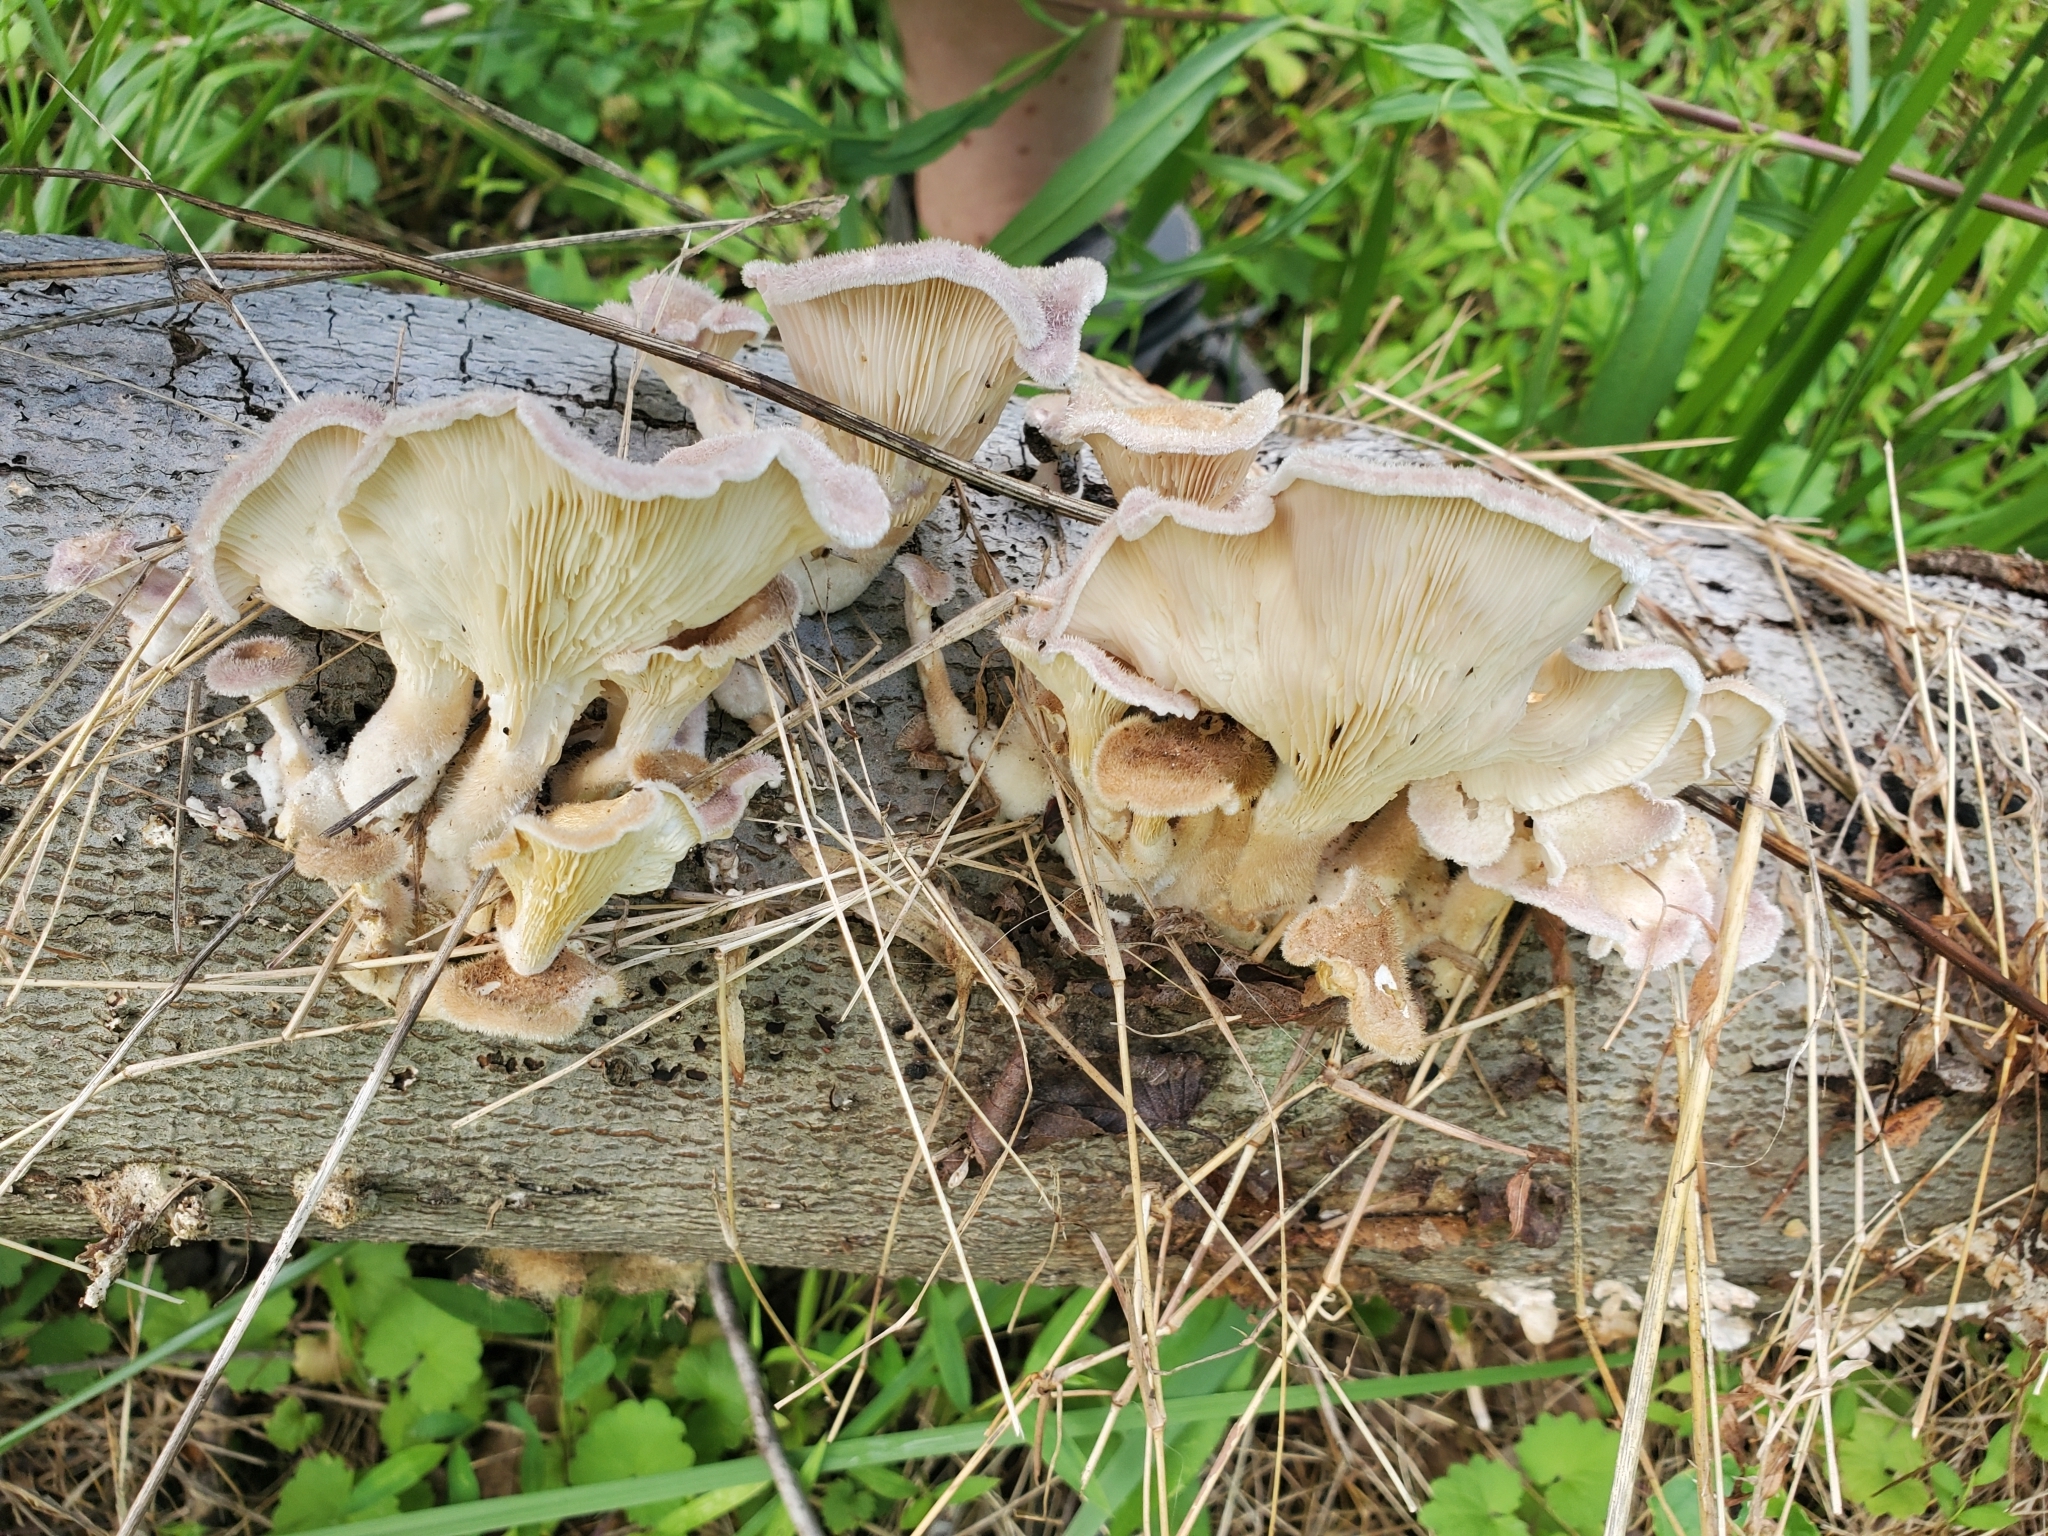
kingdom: Fungi
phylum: Basidiomycota
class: Agaricomycetes
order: Polyporales
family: Panaceae
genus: Panus
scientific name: Panus conchatus
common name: Lilac oysterling
